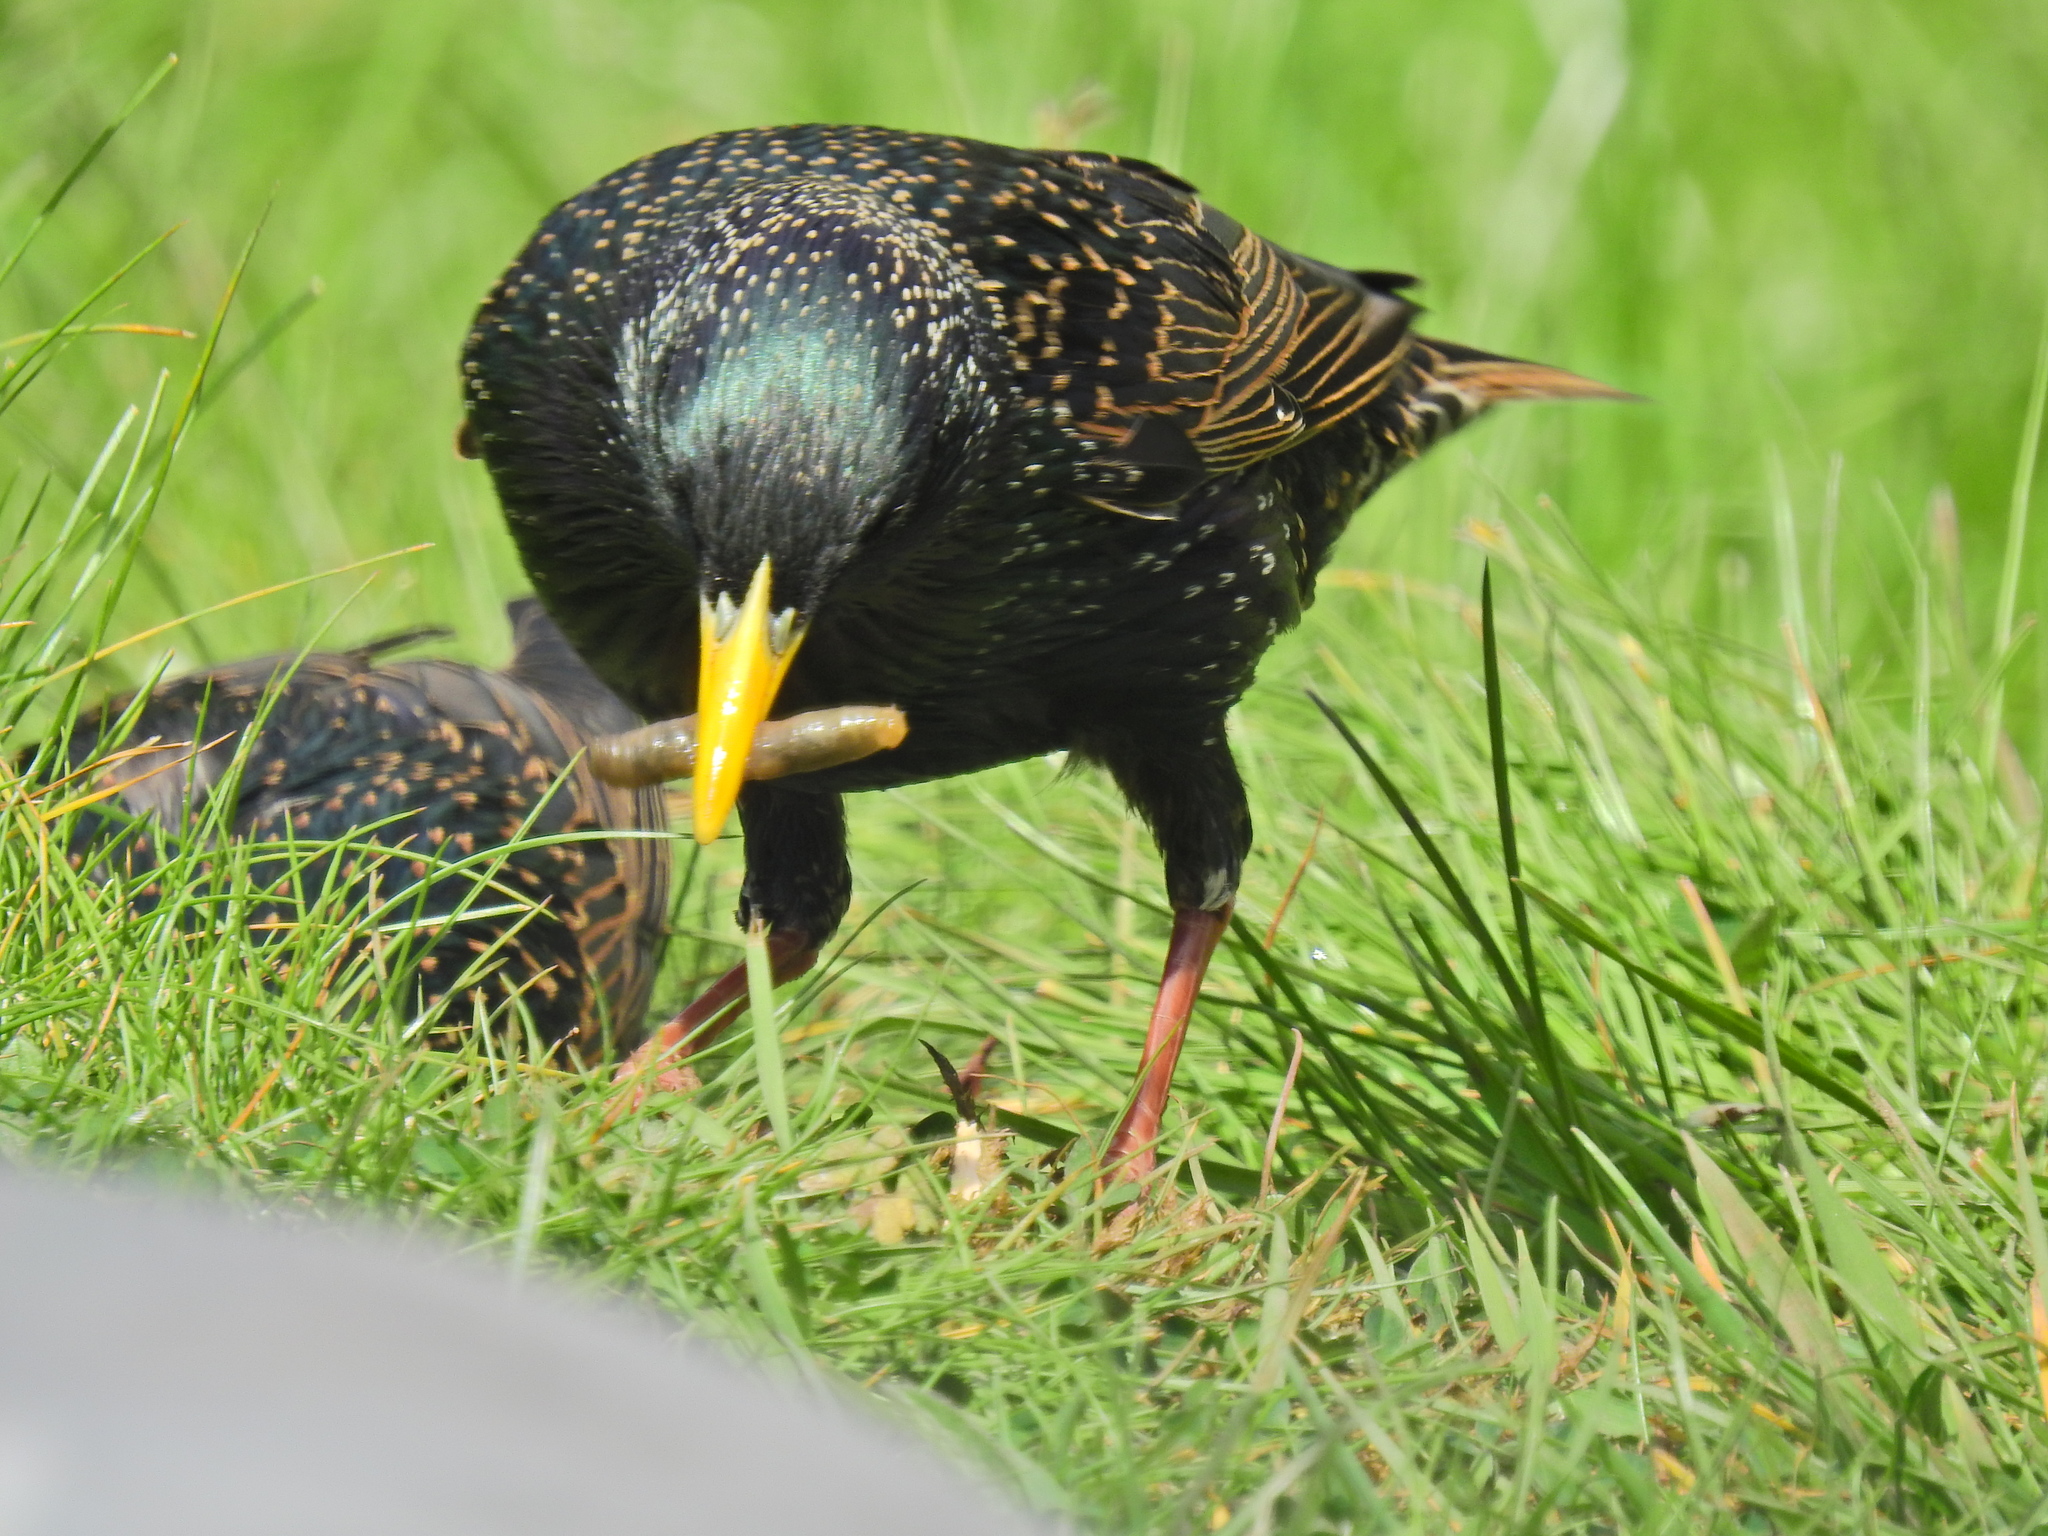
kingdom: Animalia
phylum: Chordata
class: Aves
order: Passeriformes
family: Sturnidae
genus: Sturnus
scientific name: Sturnus vulgaris
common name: Common starling
